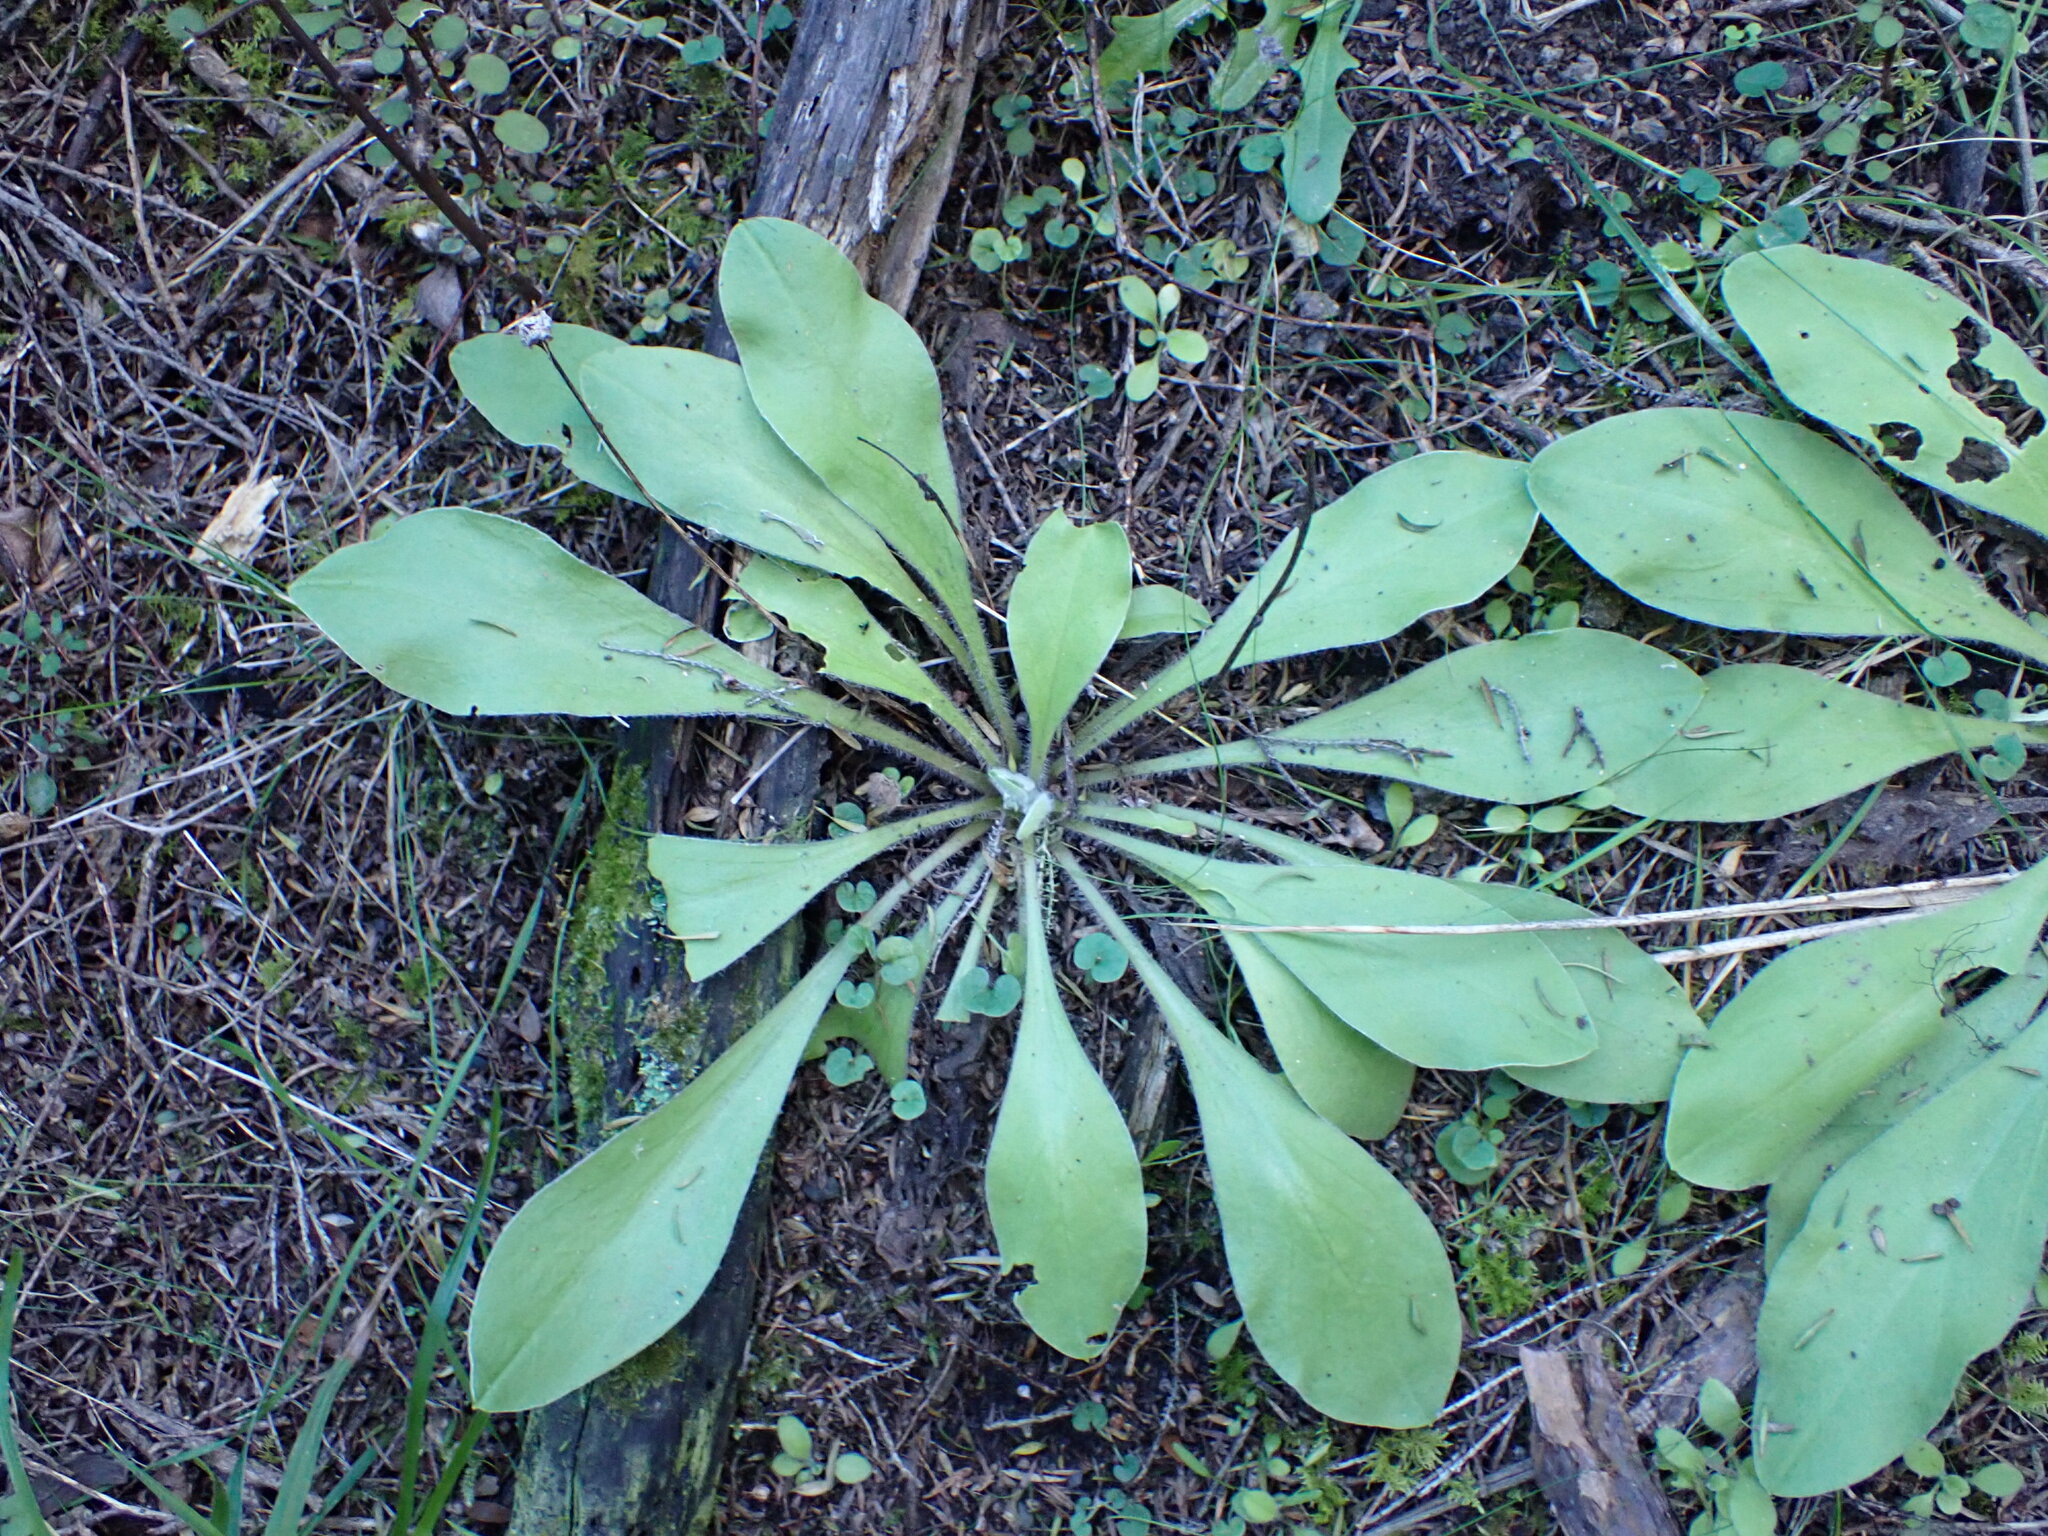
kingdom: Plantae
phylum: Tracheophyta
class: Magnoliopsida
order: Asterales
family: Asteraceae
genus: Craspedia
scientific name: Craspedia uniflora
